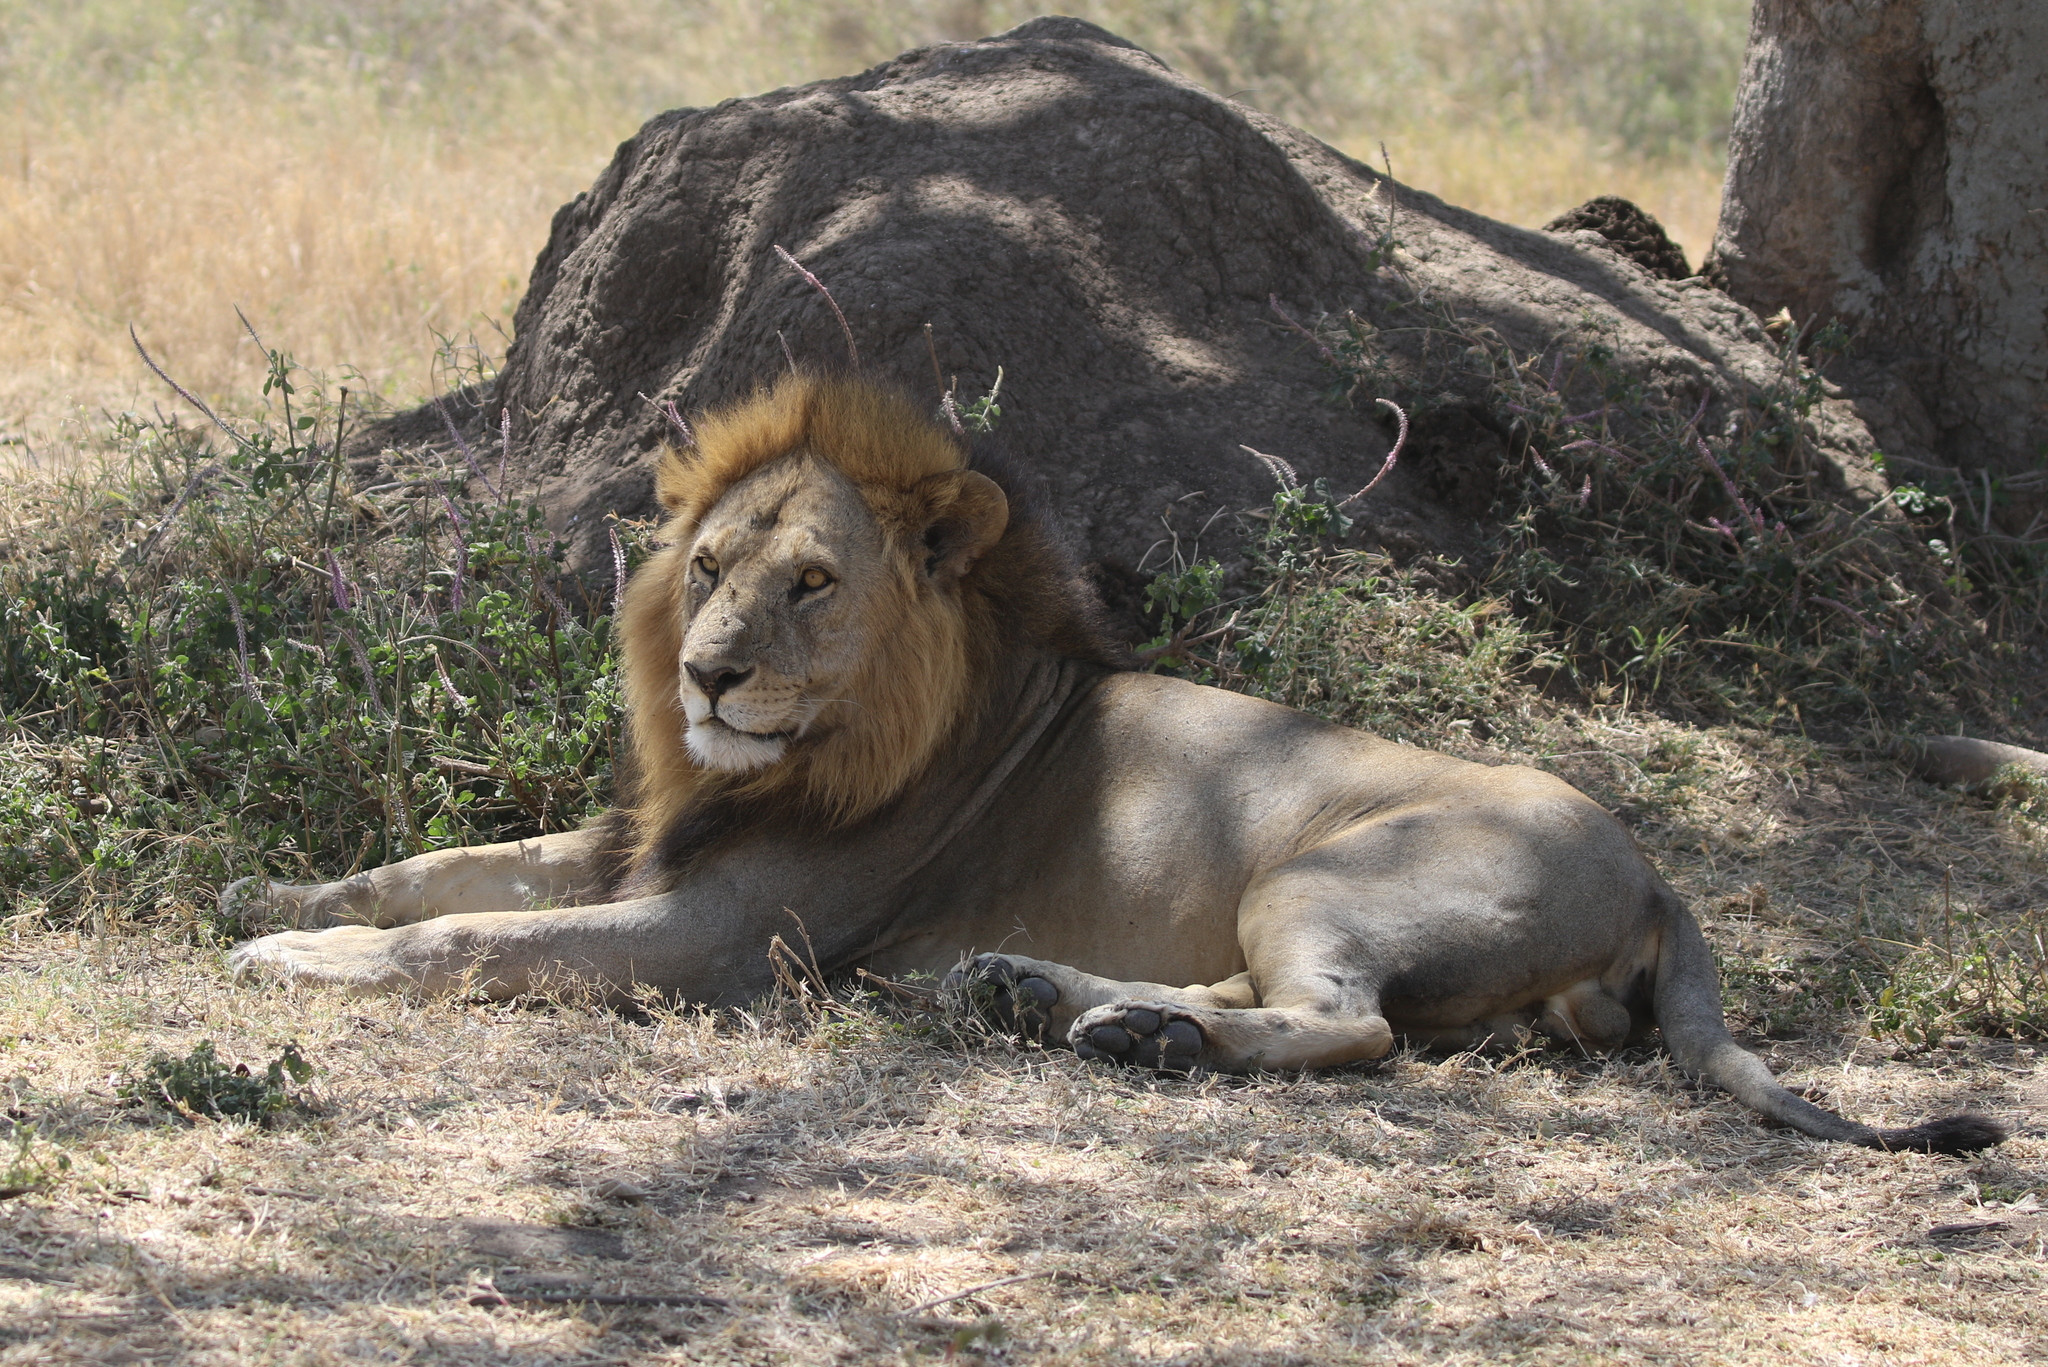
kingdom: Animalia
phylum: Chordata
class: Mammalia
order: Carnivora
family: Felidae
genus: Panthera
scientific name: Panthera leo
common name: Lion
